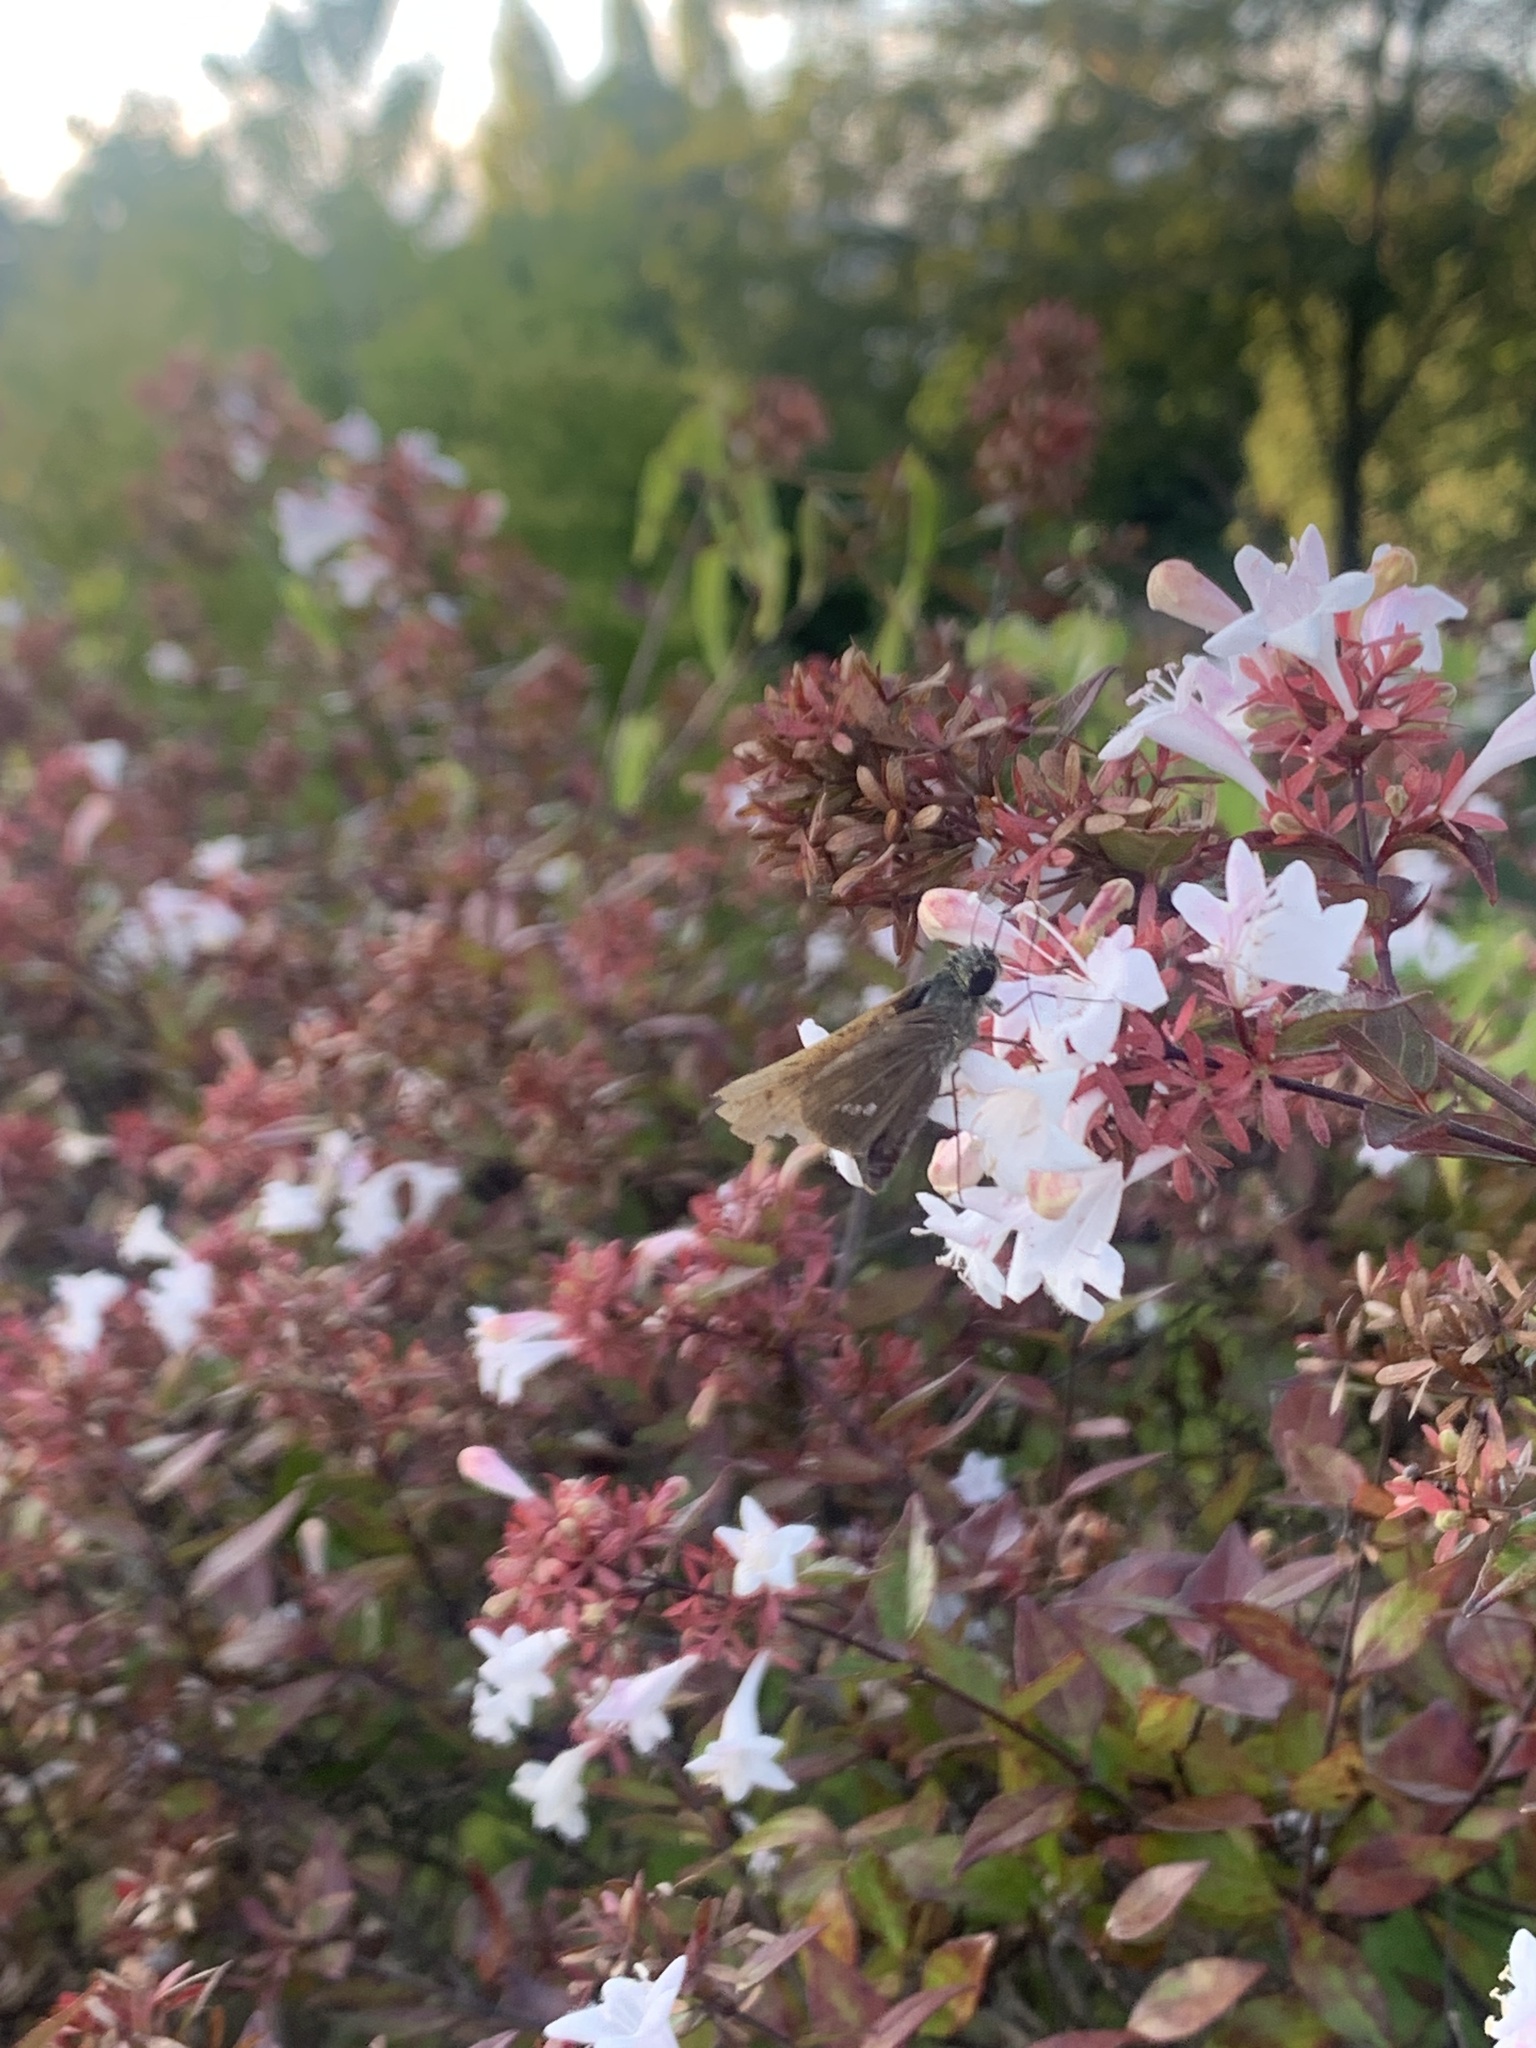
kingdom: Animalia
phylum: Arthropoda
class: Insecta
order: Lepidoptera
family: Hesperiidae
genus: Parnara
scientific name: Parnara guttatus
